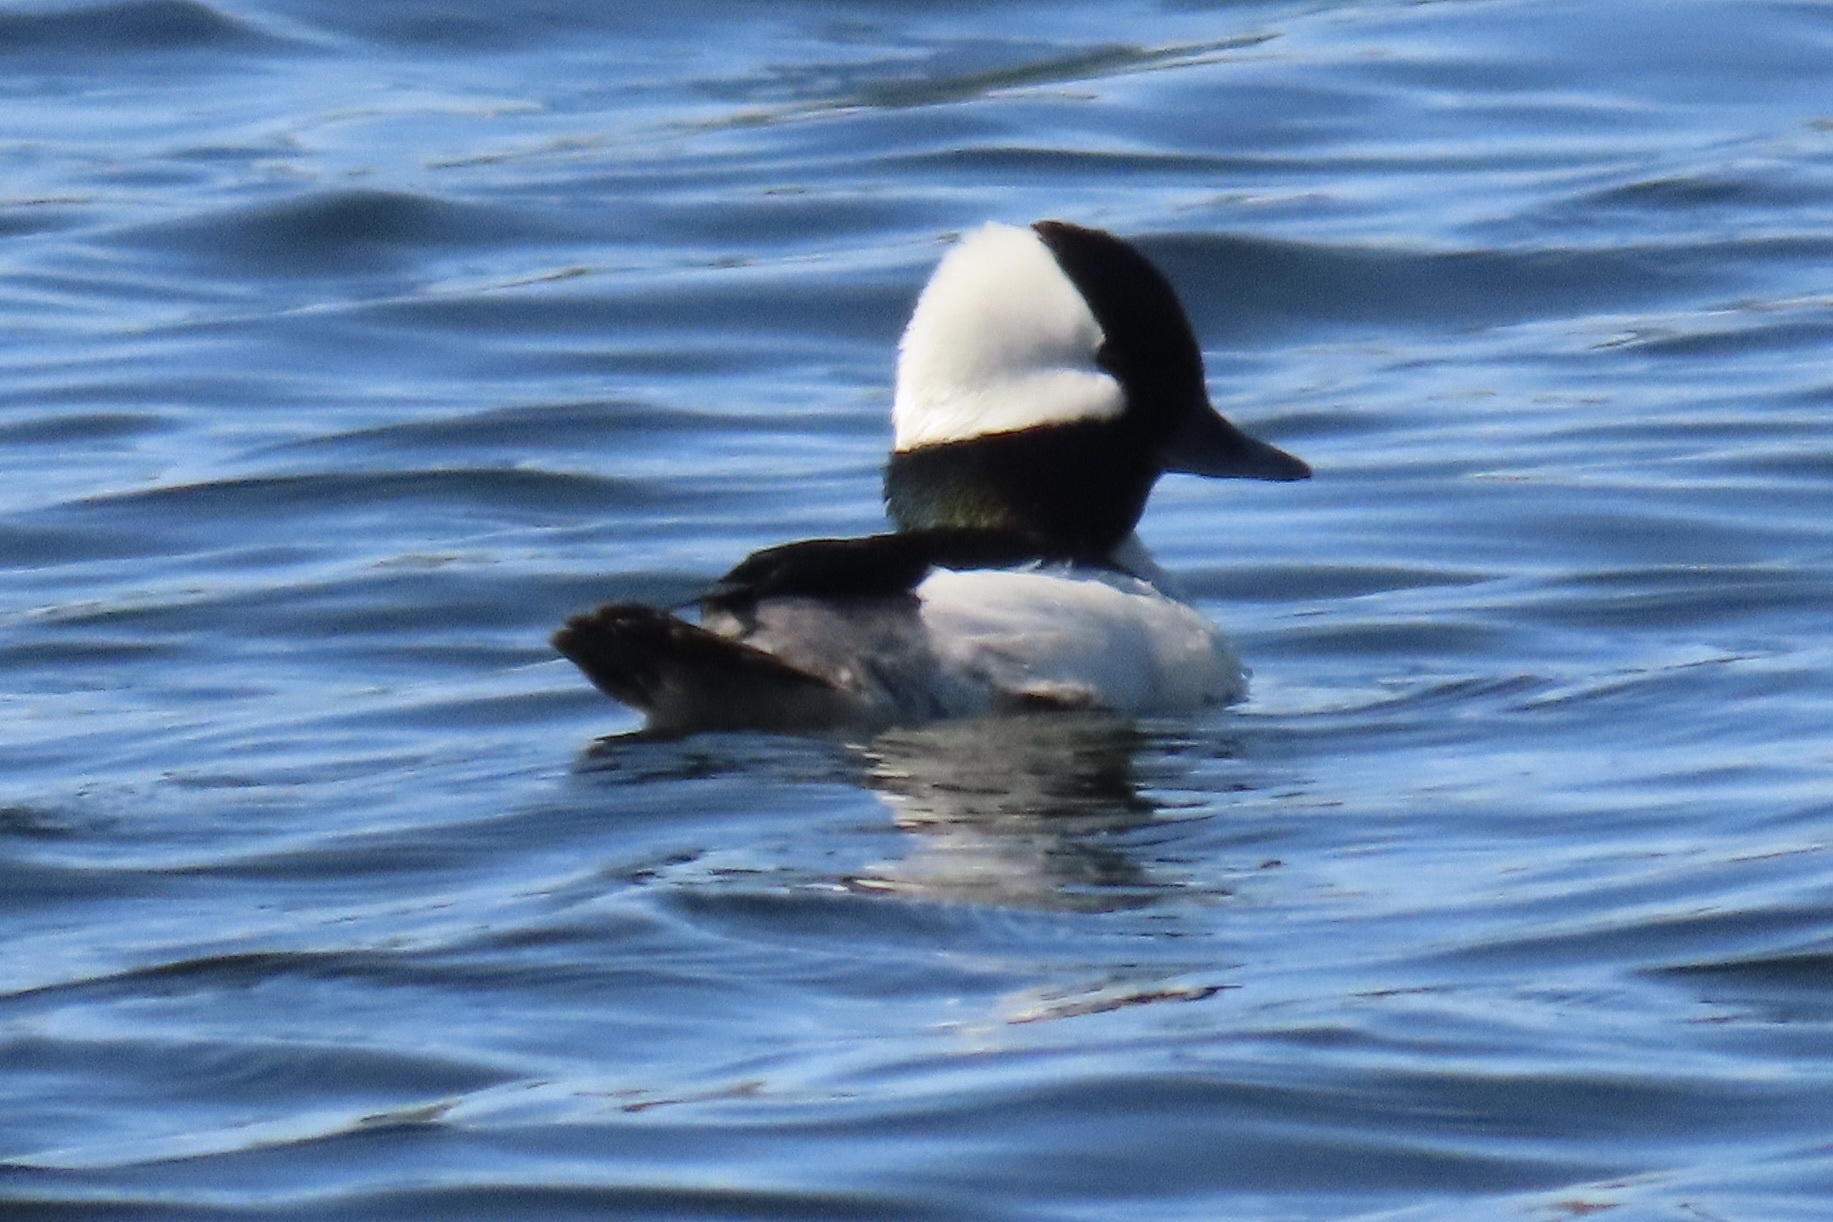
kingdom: Animalia
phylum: Chordata
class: Aves
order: Anseriformes
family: Anatidae
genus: Bucephala
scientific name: Bucephala albeola
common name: Bufflehead
